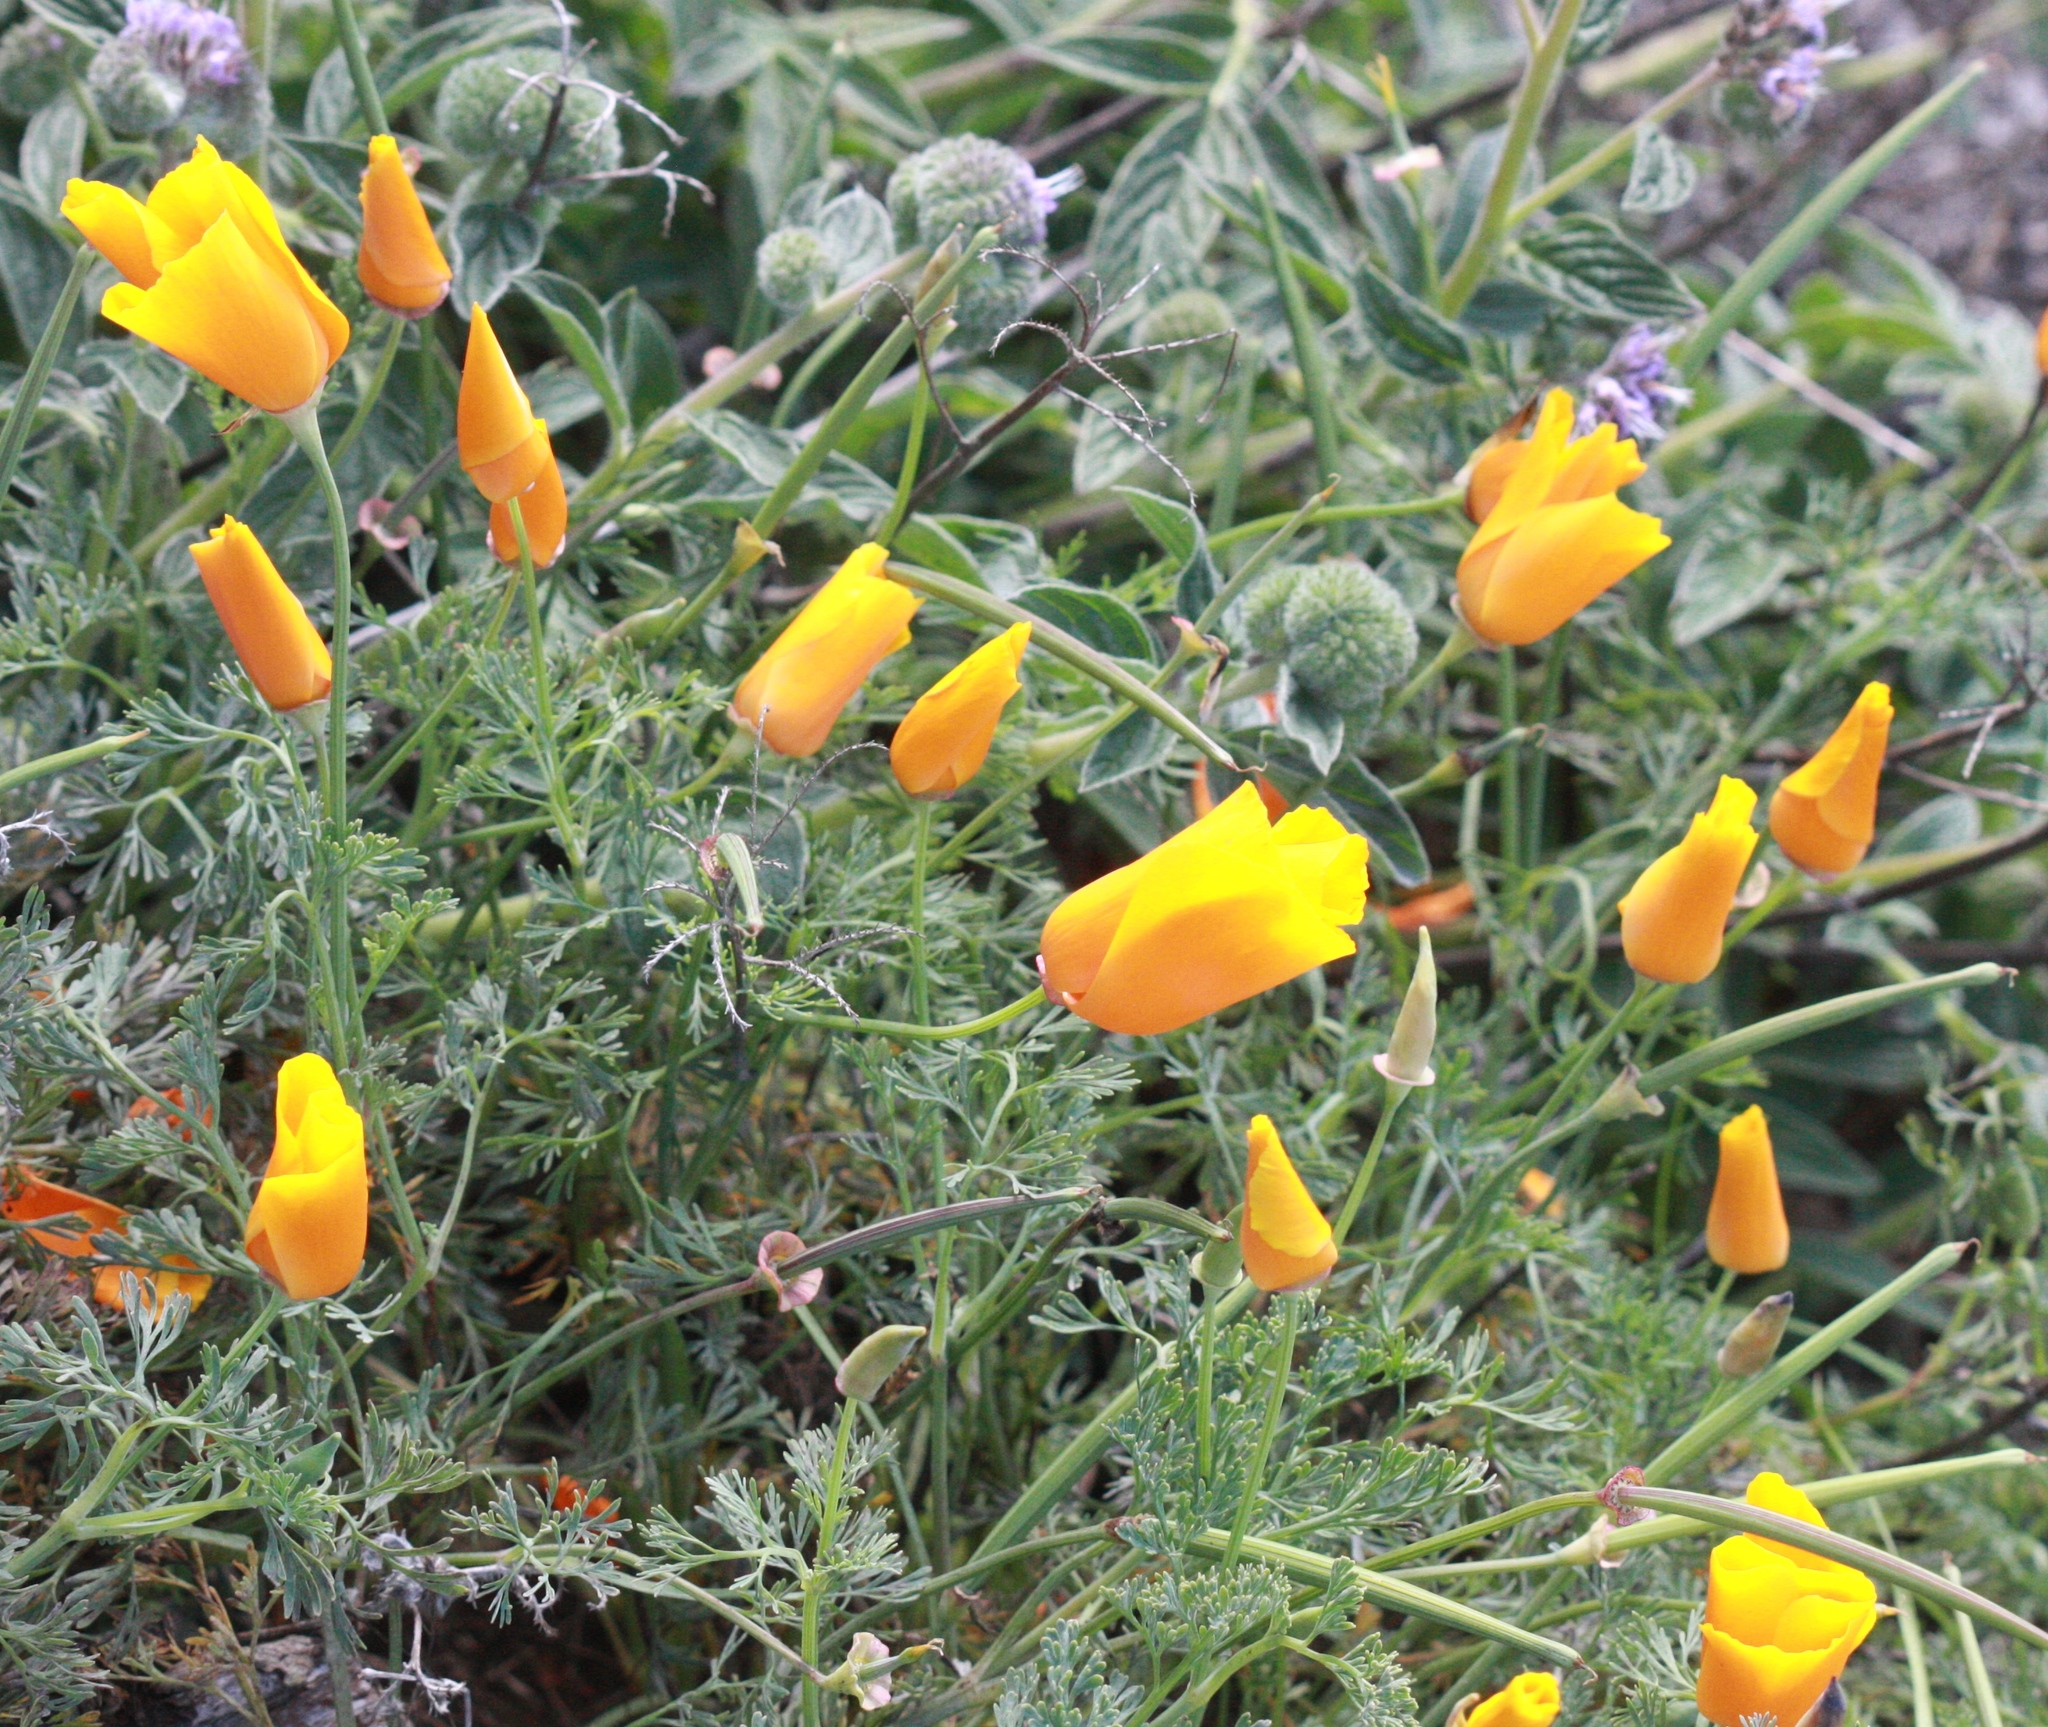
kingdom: Plantae
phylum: Tracheophyta
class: Magnoliopsida
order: Ranunculales
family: Papaveraceae
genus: Eschscholzia
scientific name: Eschscholzia californica
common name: California poppy
